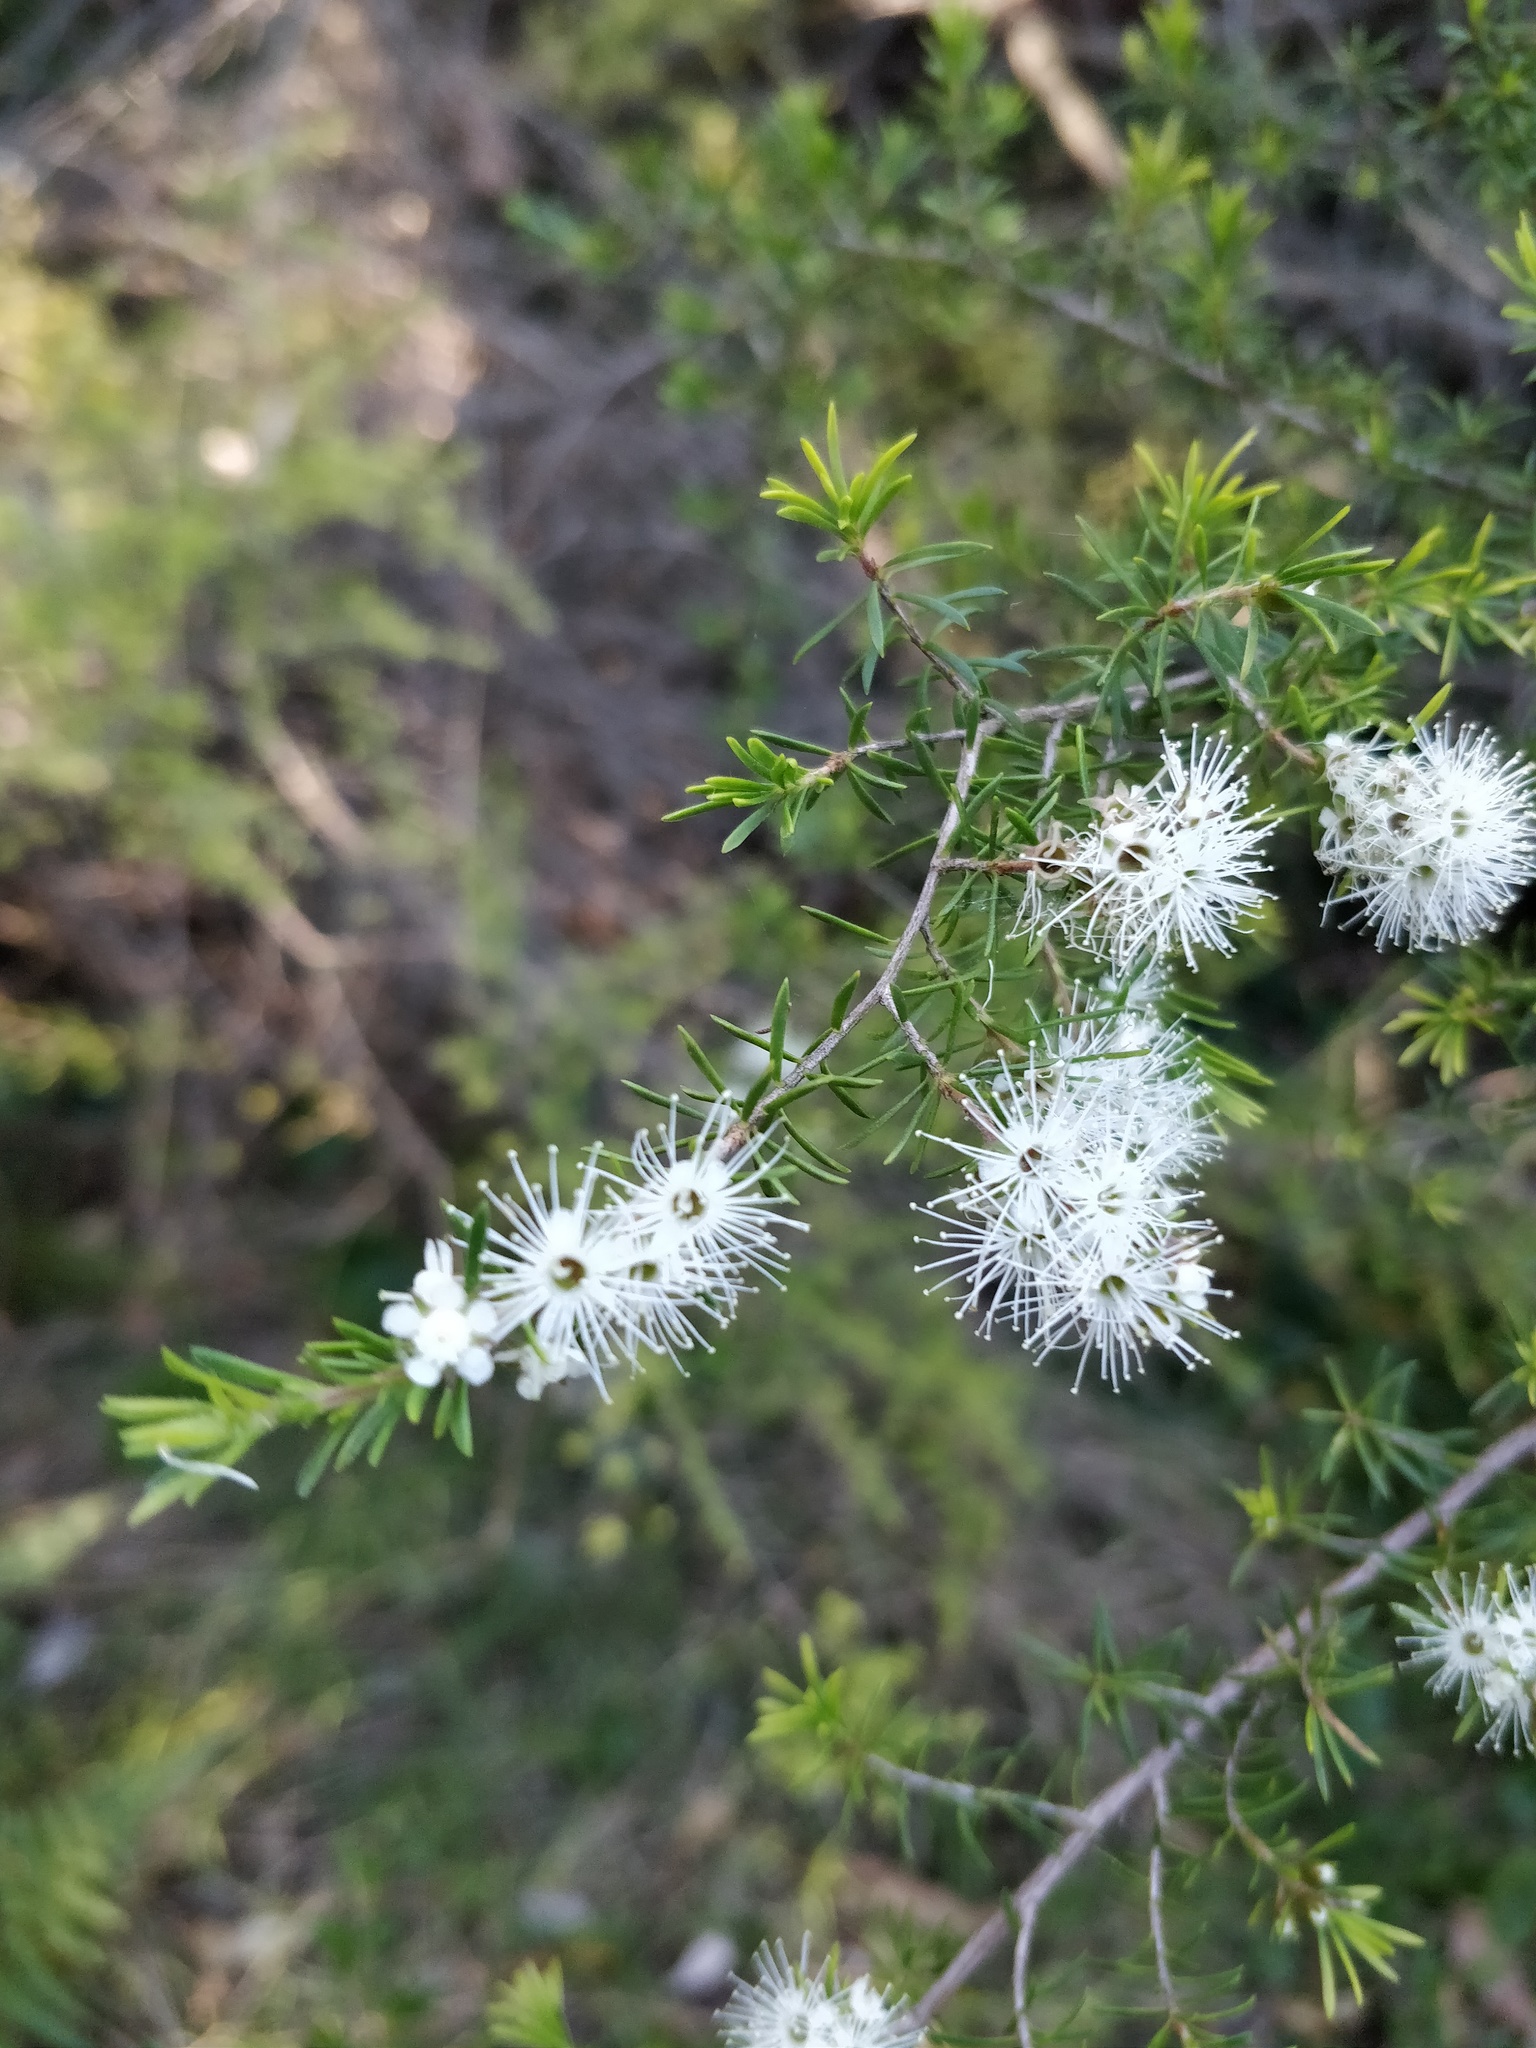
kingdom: Plantae
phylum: Tracheophyta
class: Magnoliopsida
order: Myrtales
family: Myrtaceae
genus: Kunzea
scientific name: Kunzea ambigua
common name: Tickbush
